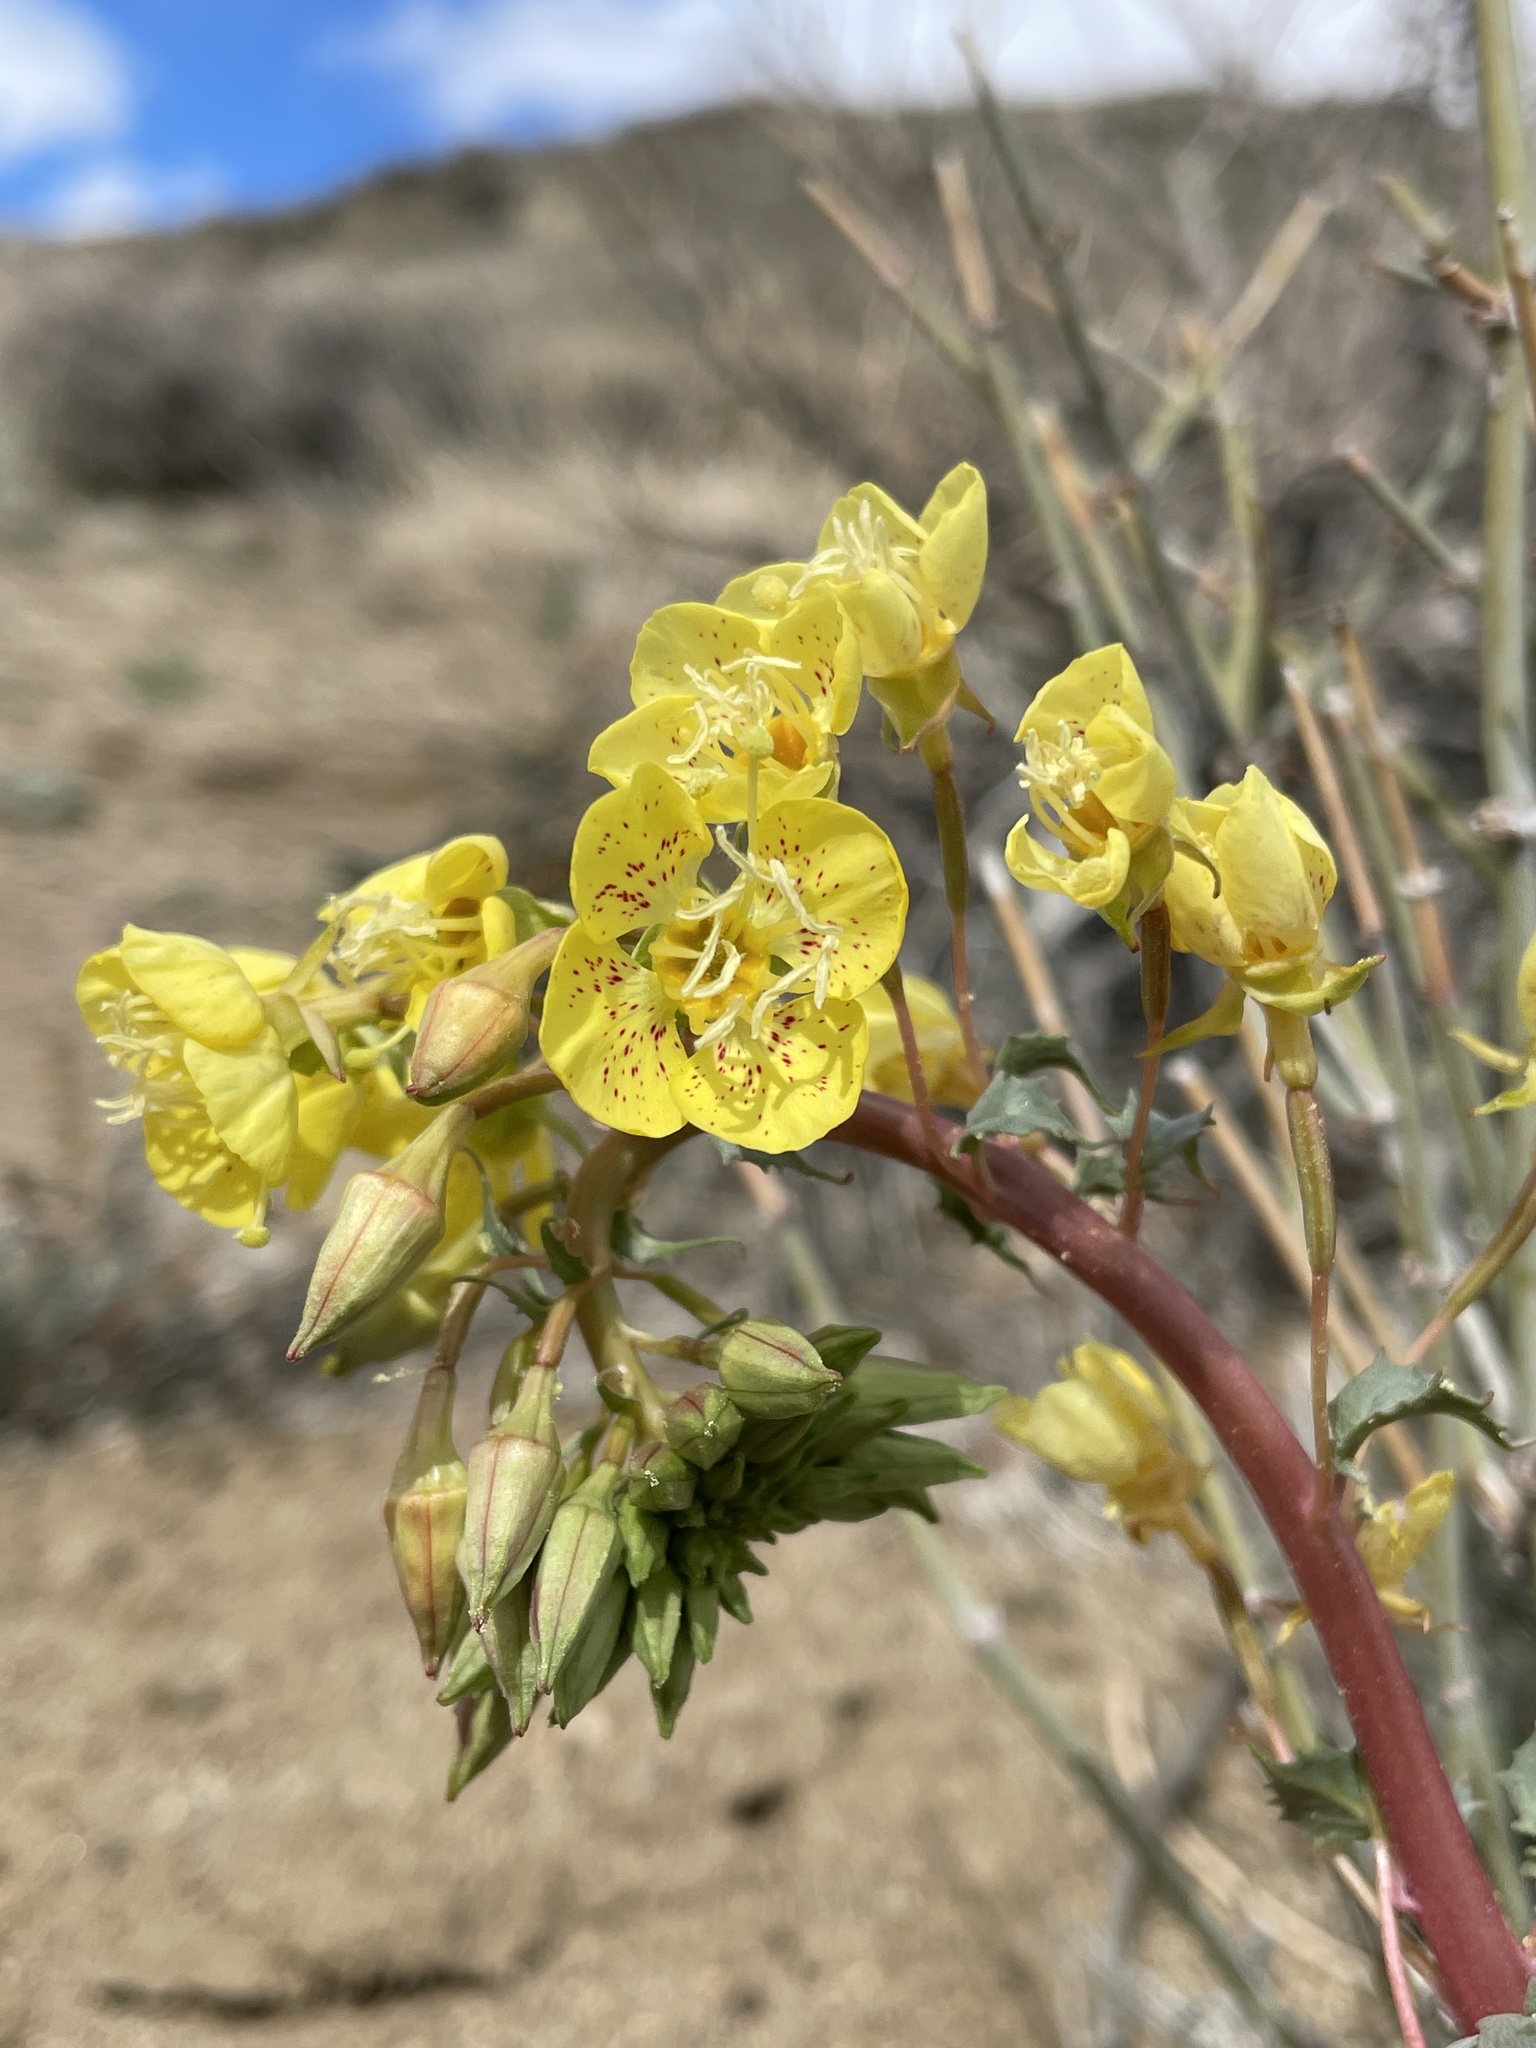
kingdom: Plantae
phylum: Tracheophyta
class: Magnoliopsida
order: Myrtales
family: Onagraceae
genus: Chylismia
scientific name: Chylismia claviformis
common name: Browneyes
